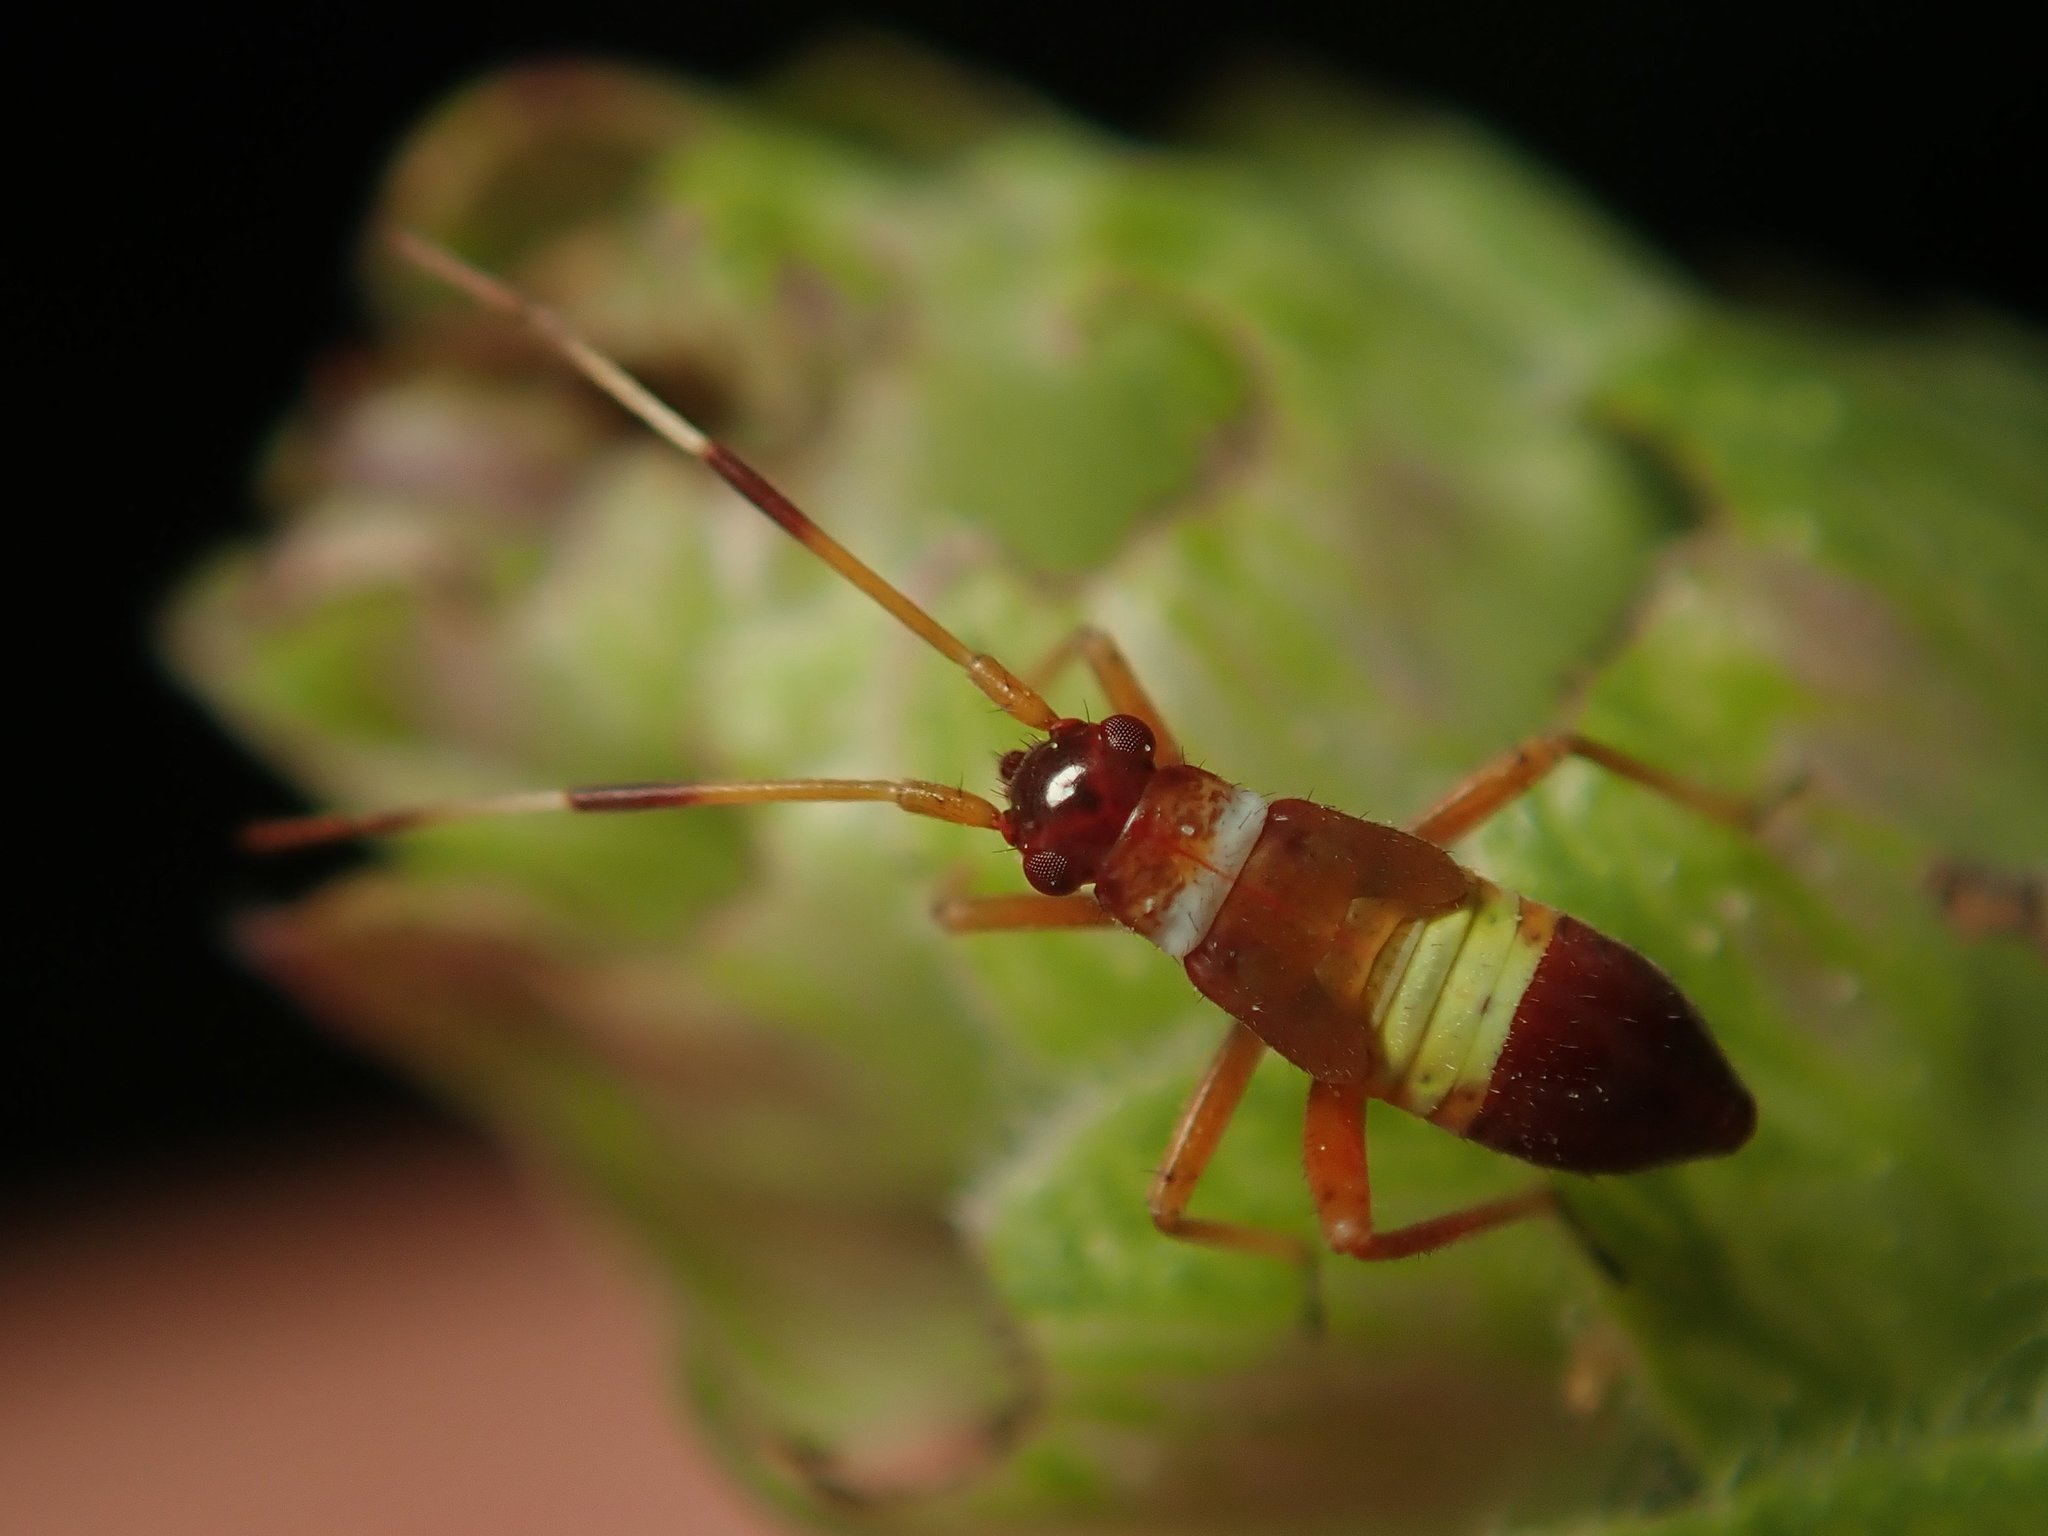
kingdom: Animalia
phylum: Arthropoda
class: Insecta
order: Hemiptera
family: Miridae
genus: Closterotomus
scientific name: Closterotomus biclavatus
